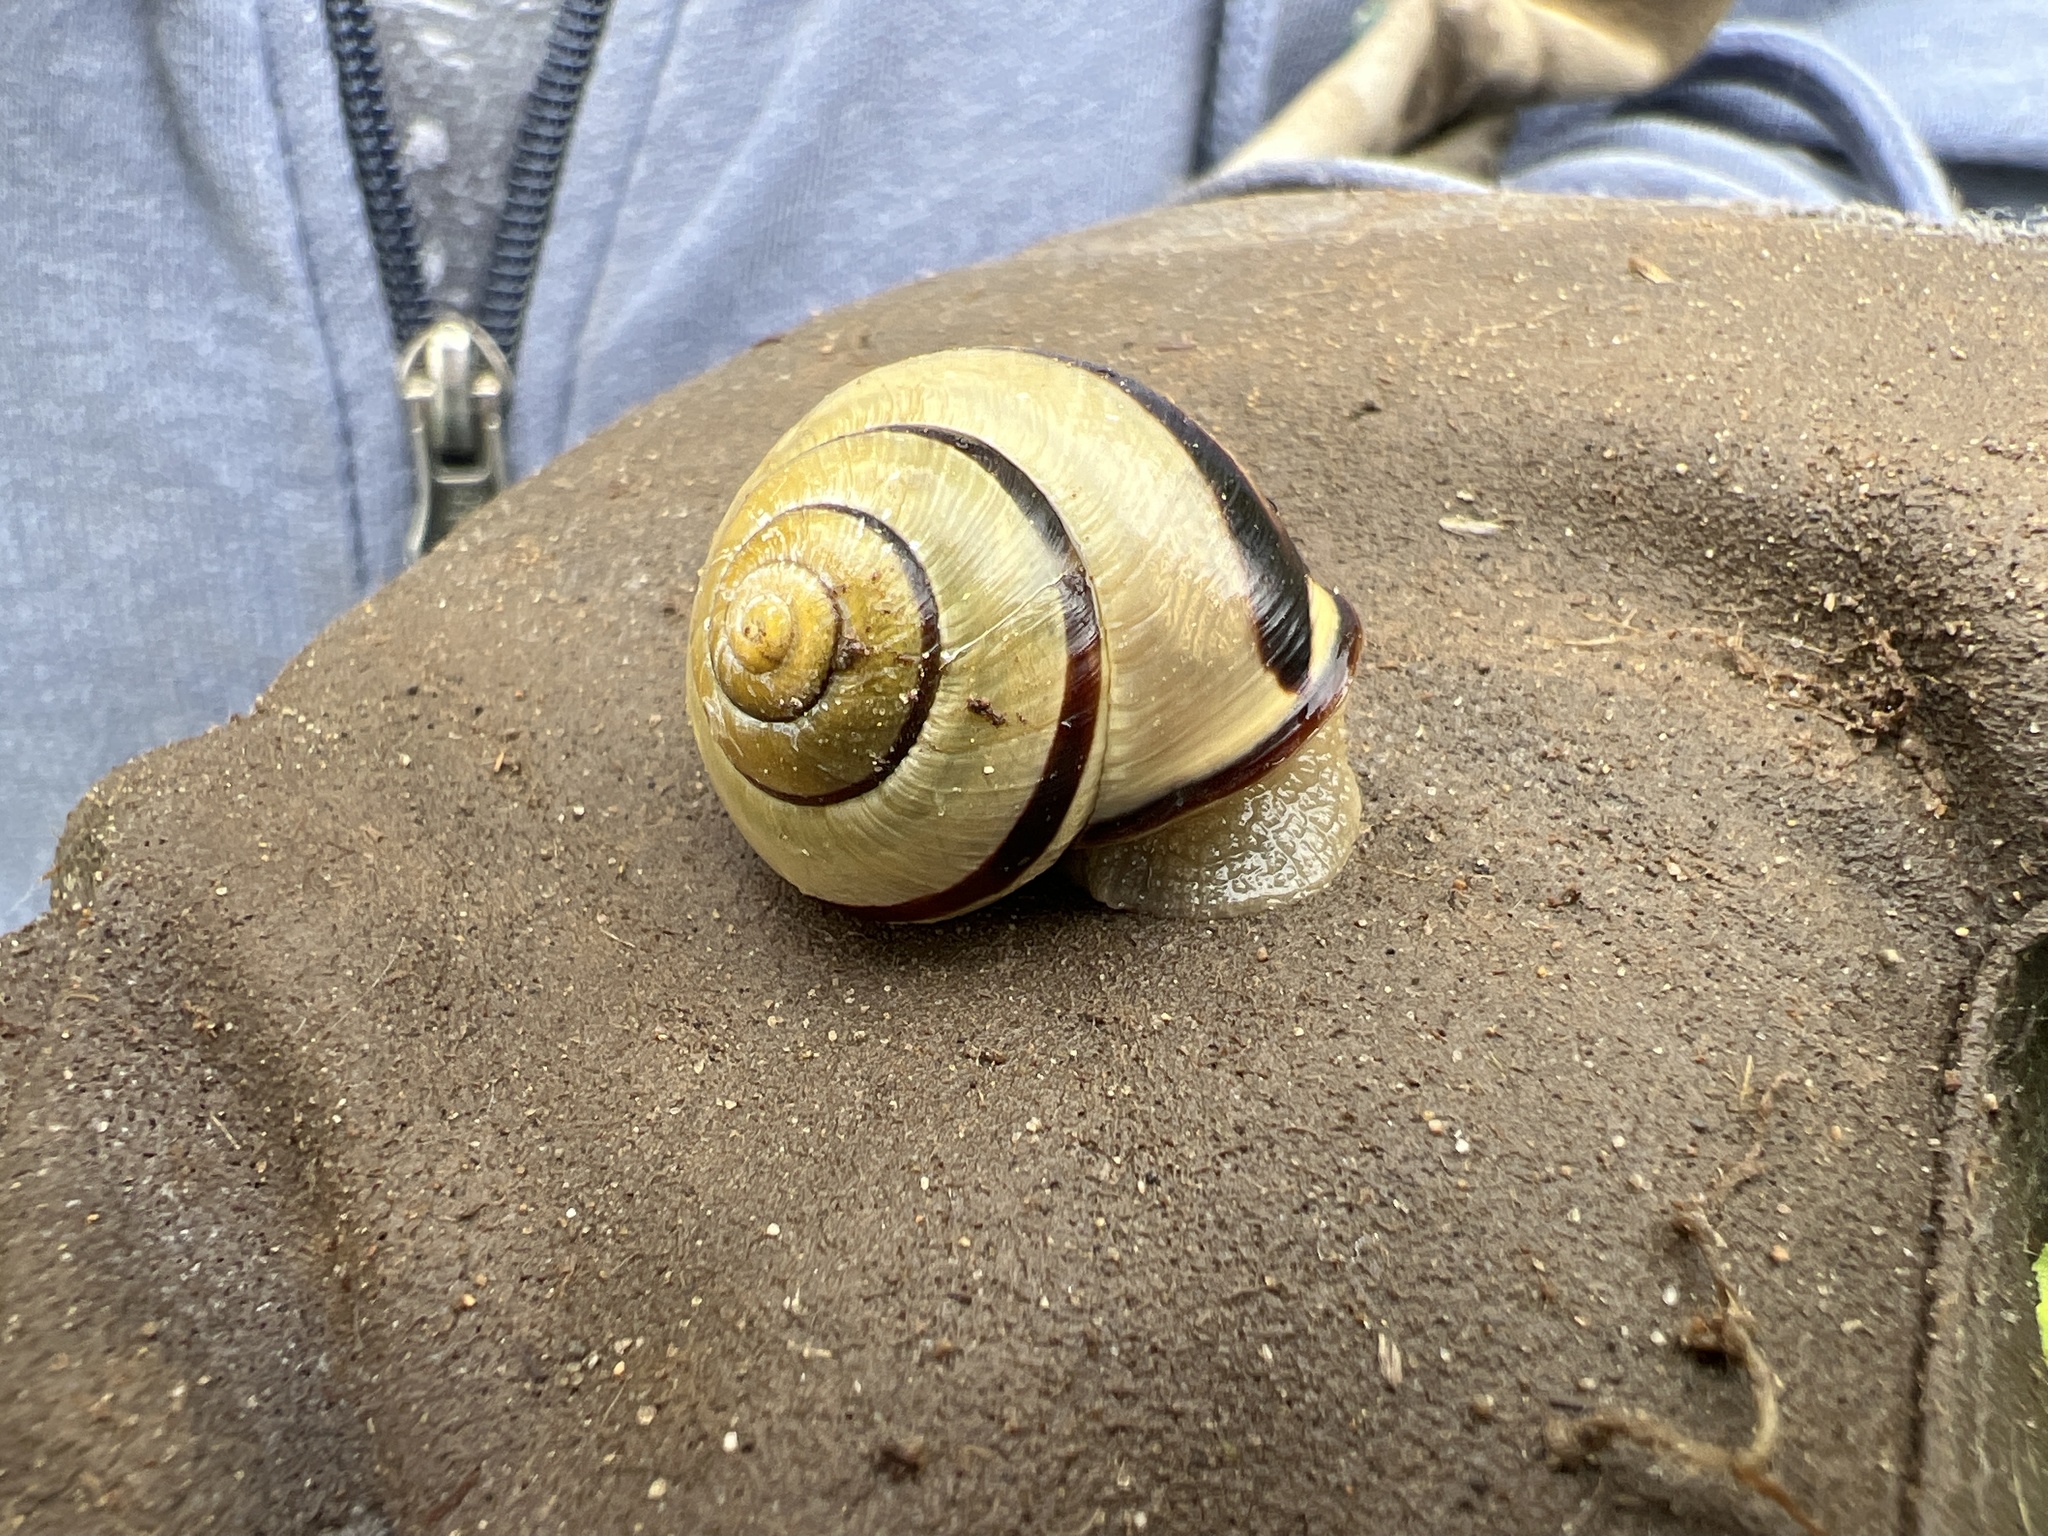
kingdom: Animalia
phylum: Mollusca
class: Gastropoda
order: Stylommatophora
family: Helicidae
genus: Cepaea
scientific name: Cepaea nemoralis
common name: Grovesnail
